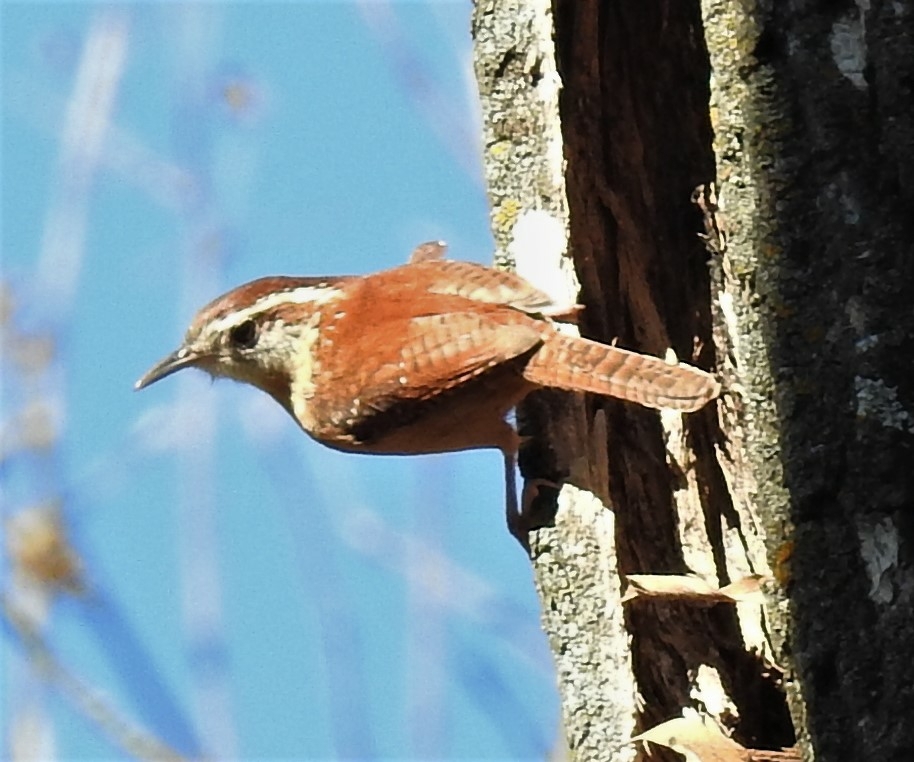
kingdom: Animalia
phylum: Chordata
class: Aves
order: Passeriformes
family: Troglodytidae
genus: Thryothorus
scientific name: Thryothorus ludovicianus
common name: Carolina wren
